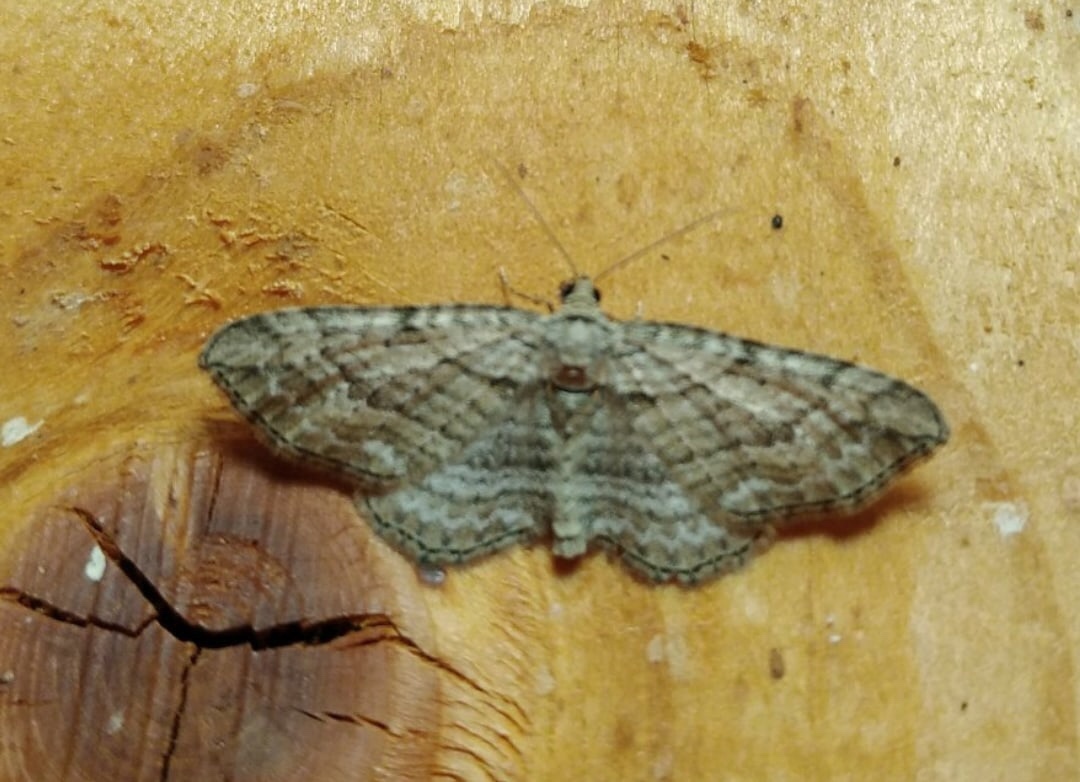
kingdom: Animalia
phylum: Arthropoda
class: Insecta
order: Lepidoptera
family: Geometridae
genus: Horisme
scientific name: Horisme tersata
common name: Fern
